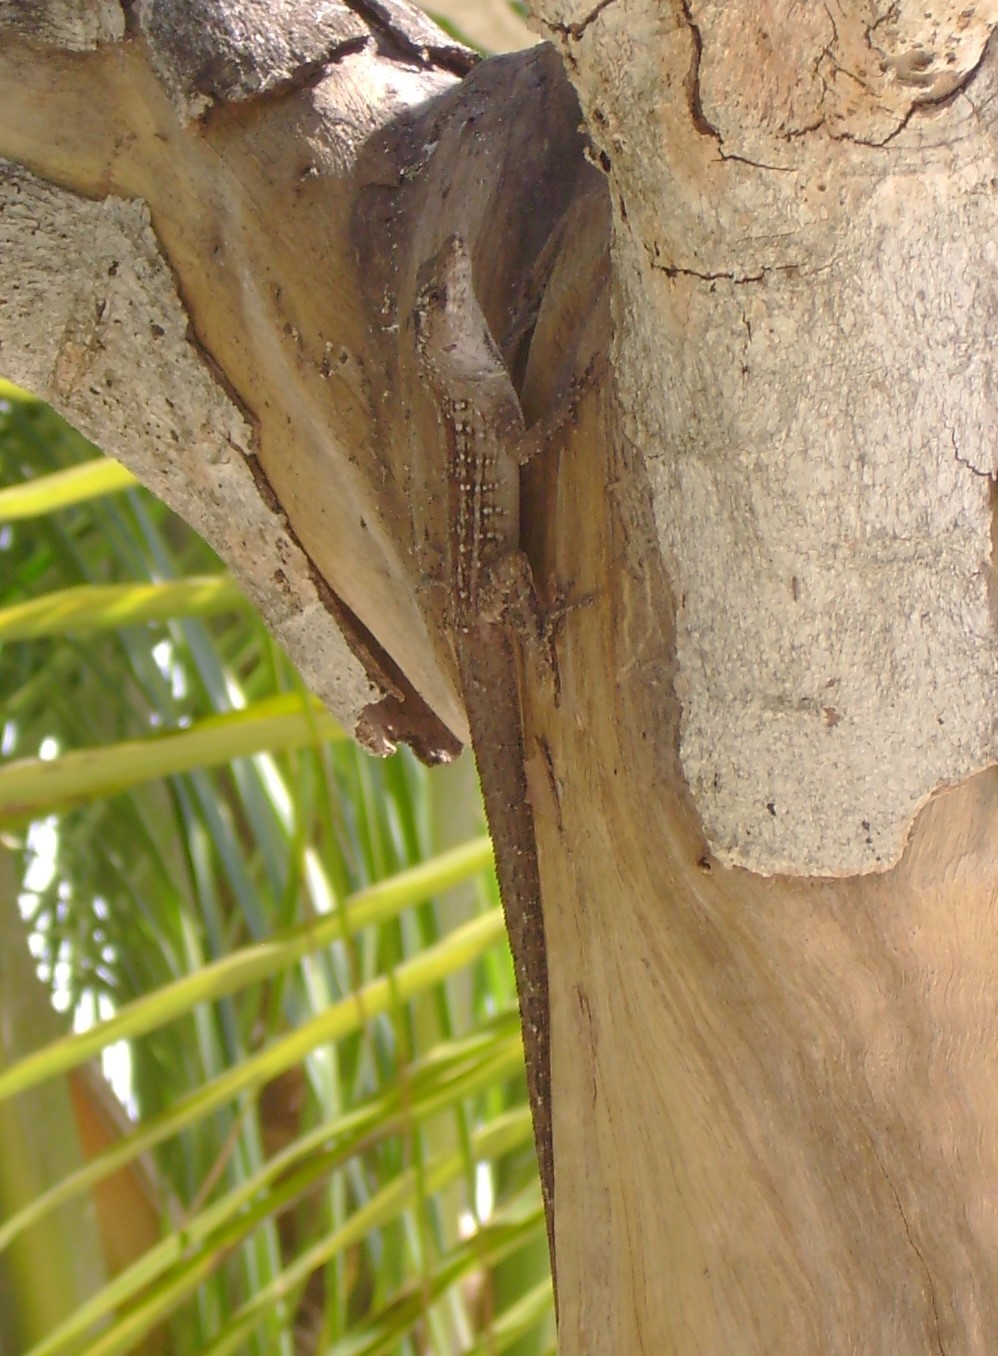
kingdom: Animalia
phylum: Chordata
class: Squamata
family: Dactyloidae
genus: Anolis
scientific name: Anolis sagrei
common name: Brown anole
